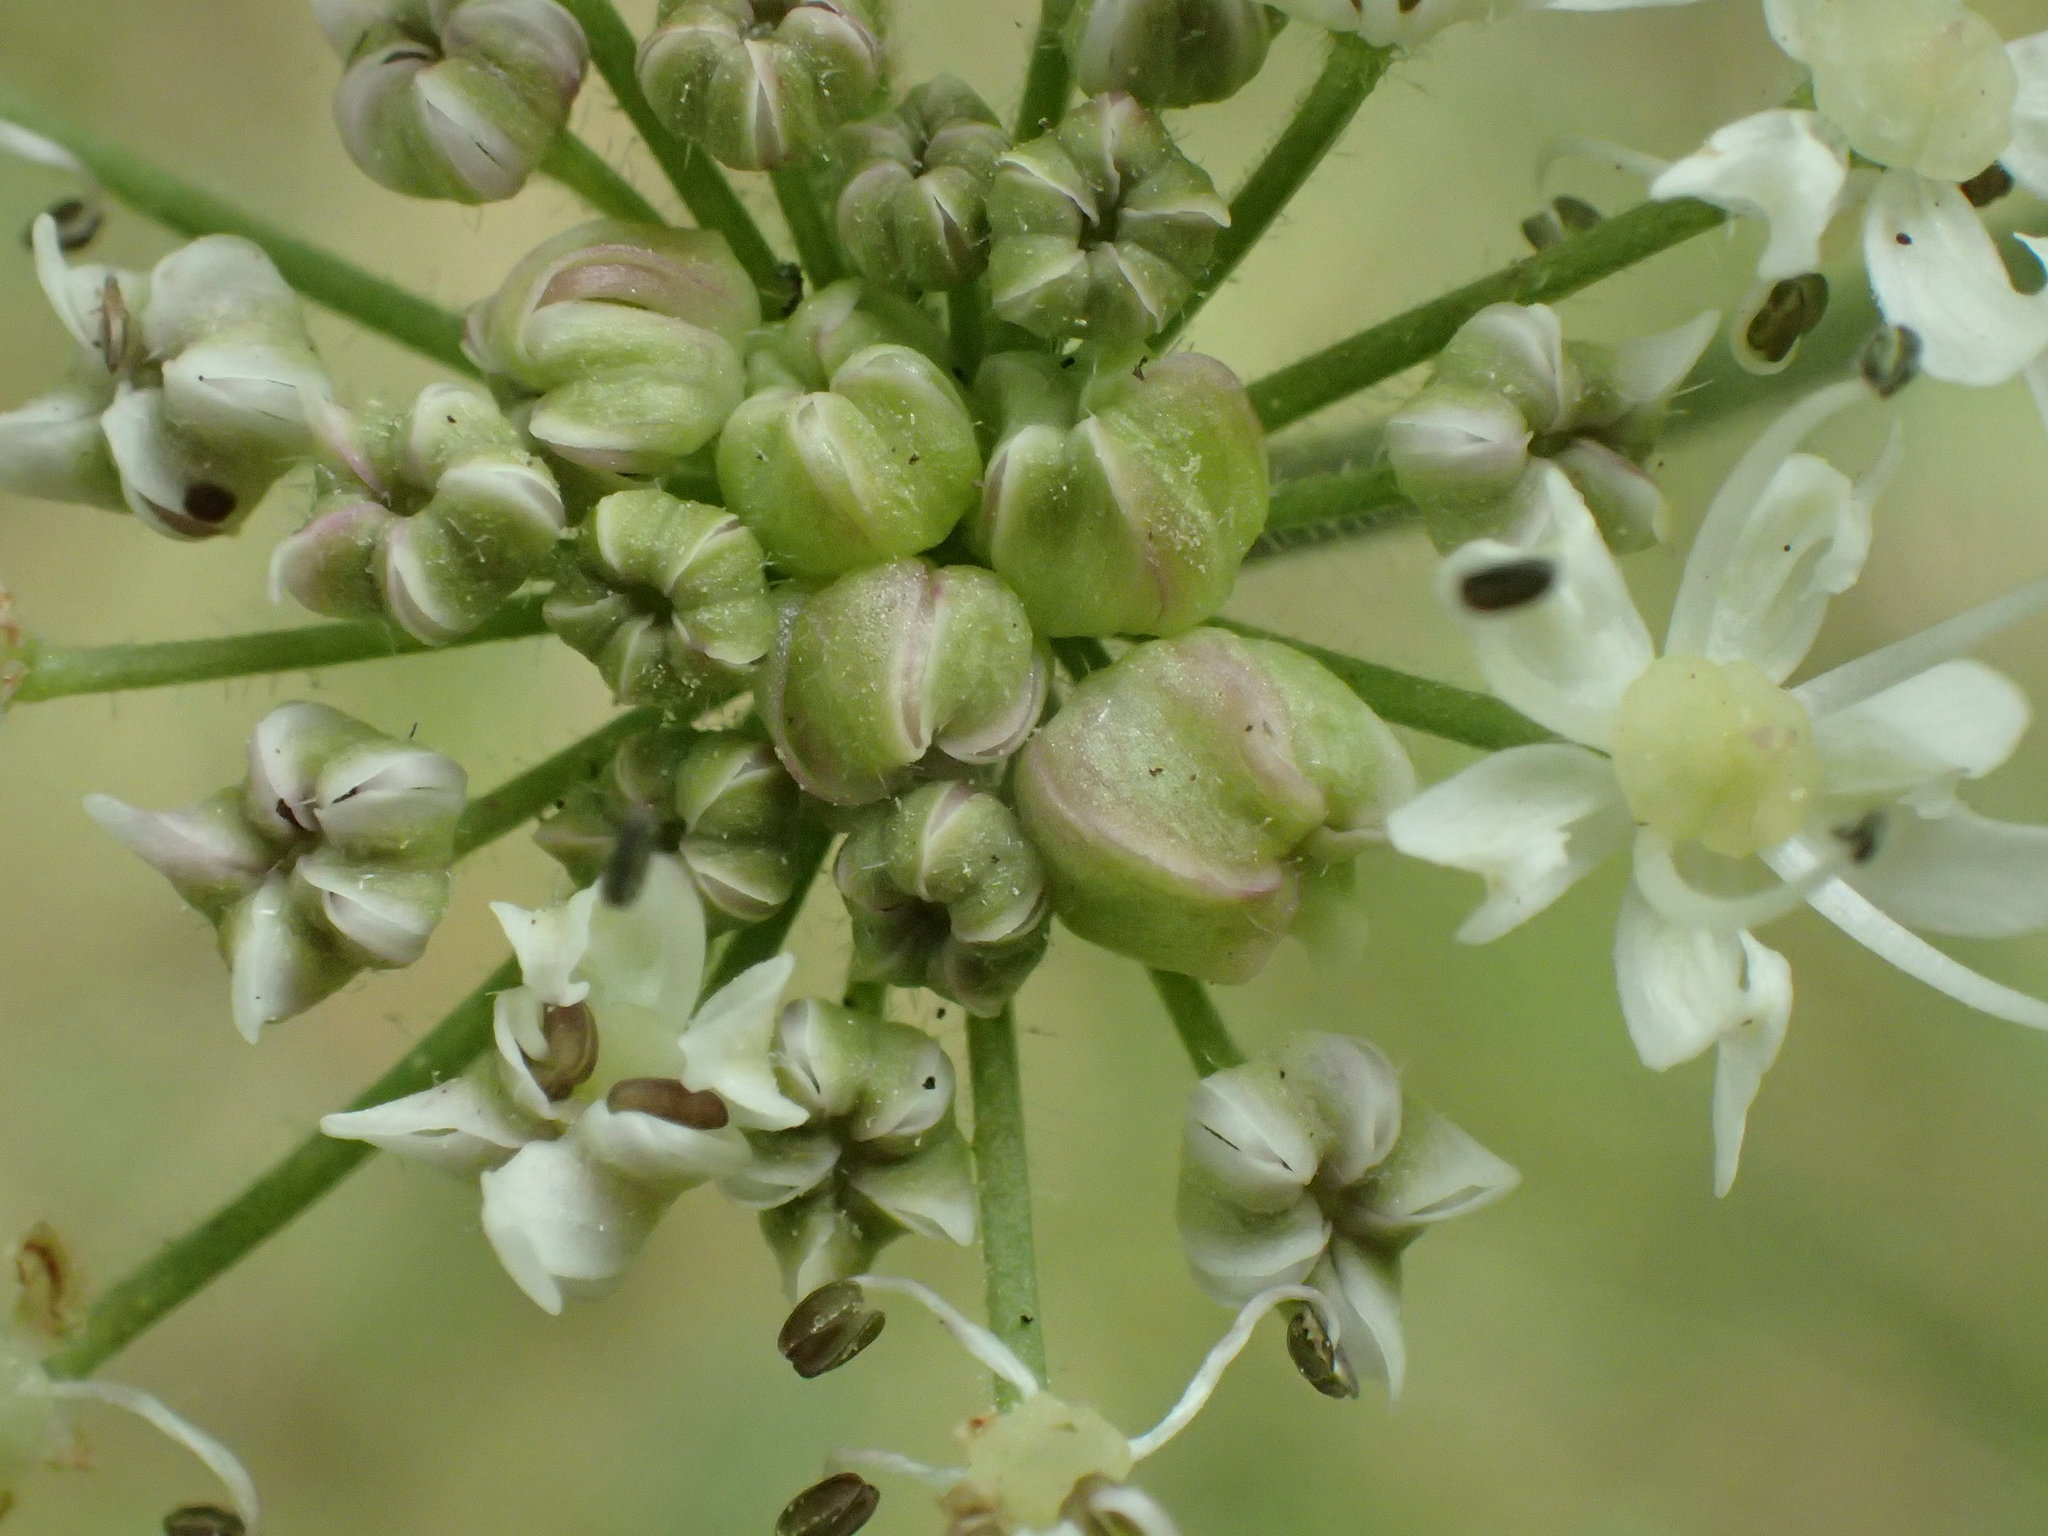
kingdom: Animalia
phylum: Arthropoda
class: Insecta
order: Diptera
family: Cecidomyiidae
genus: Contarinia
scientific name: Contarinia nicolayi
